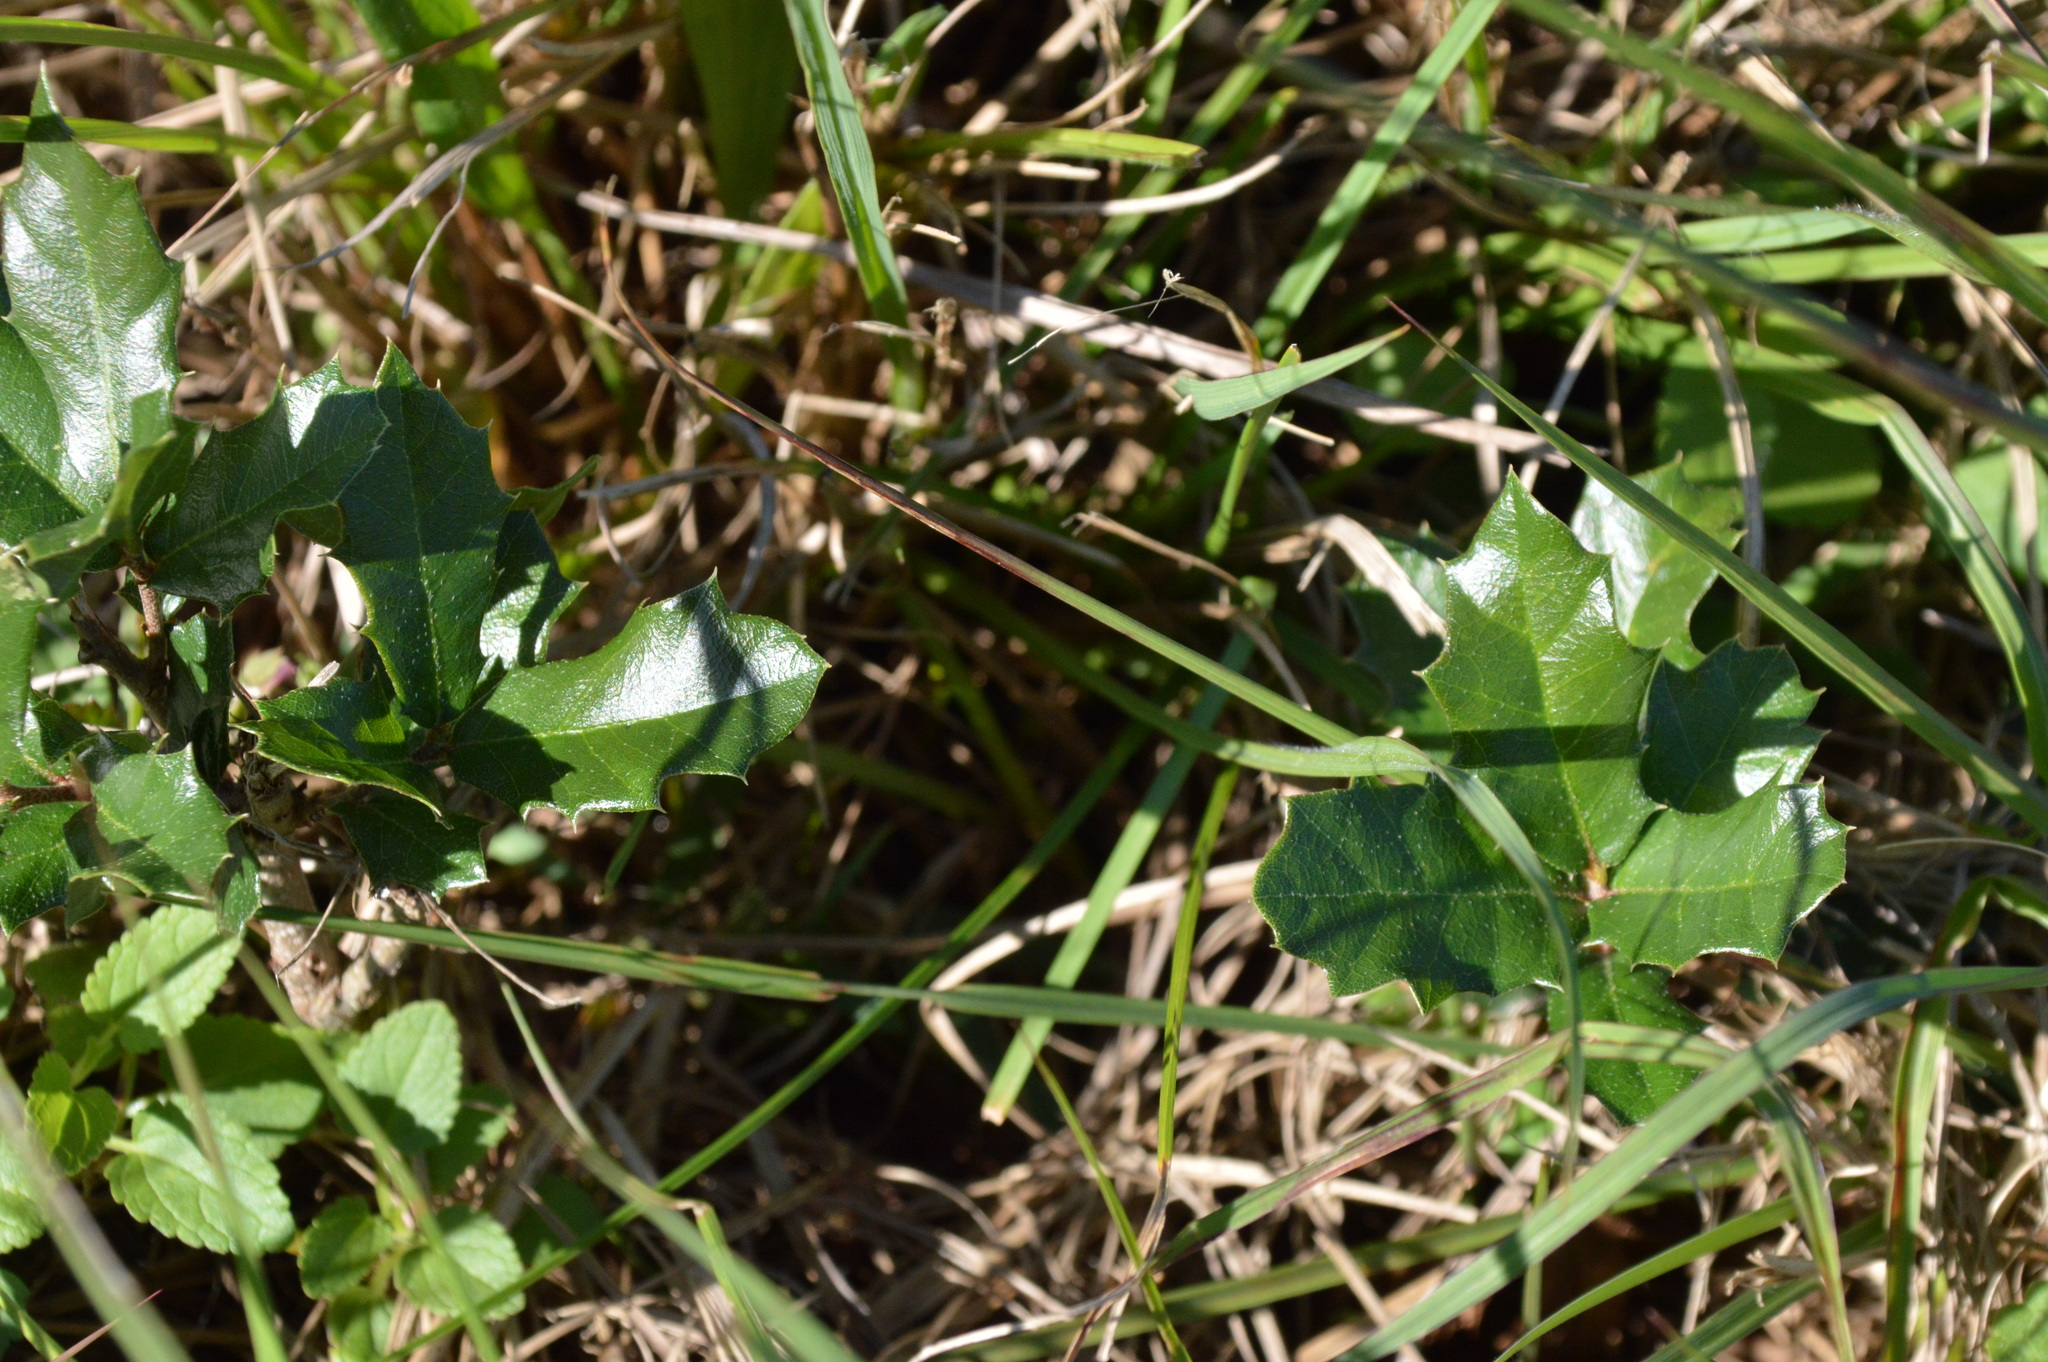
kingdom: Plantae
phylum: Tracheophyta
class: Magnoliopsida
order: Fagales
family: Fagaceae
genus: Quercus
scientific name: Quercus virginiana
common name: Southern live oak
